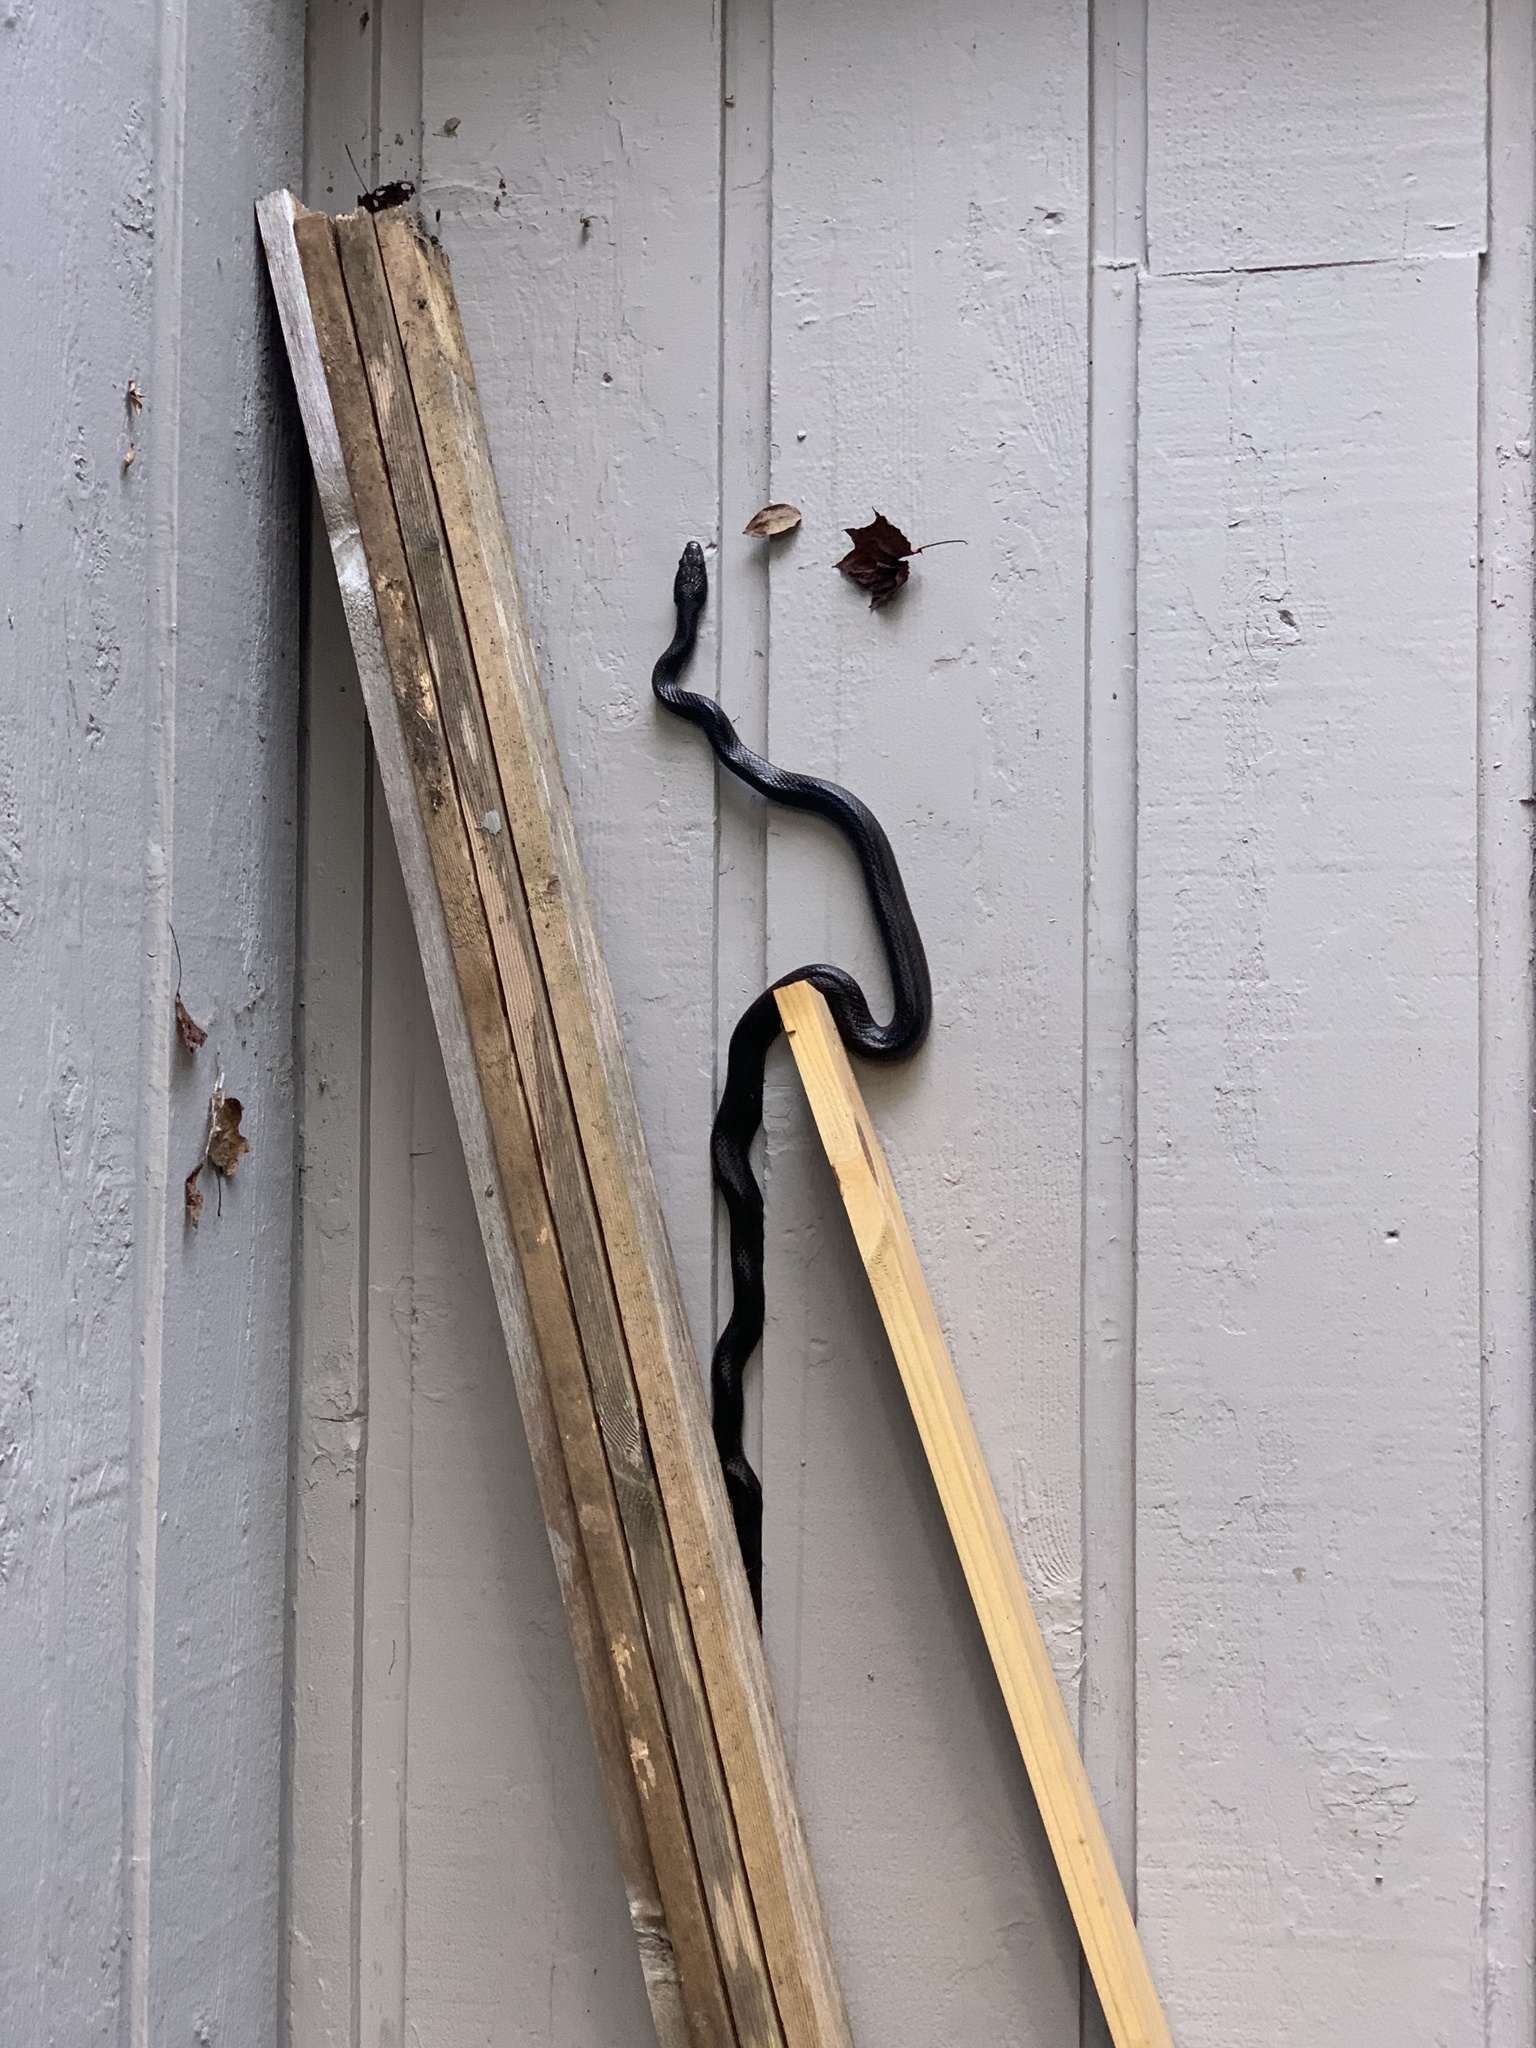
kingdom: Animalia
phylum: Chordata
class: Squamata
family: Colubridae
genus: Pantherophis
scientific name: Pantherophis alleghaniensis
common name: Eastern rat snake
